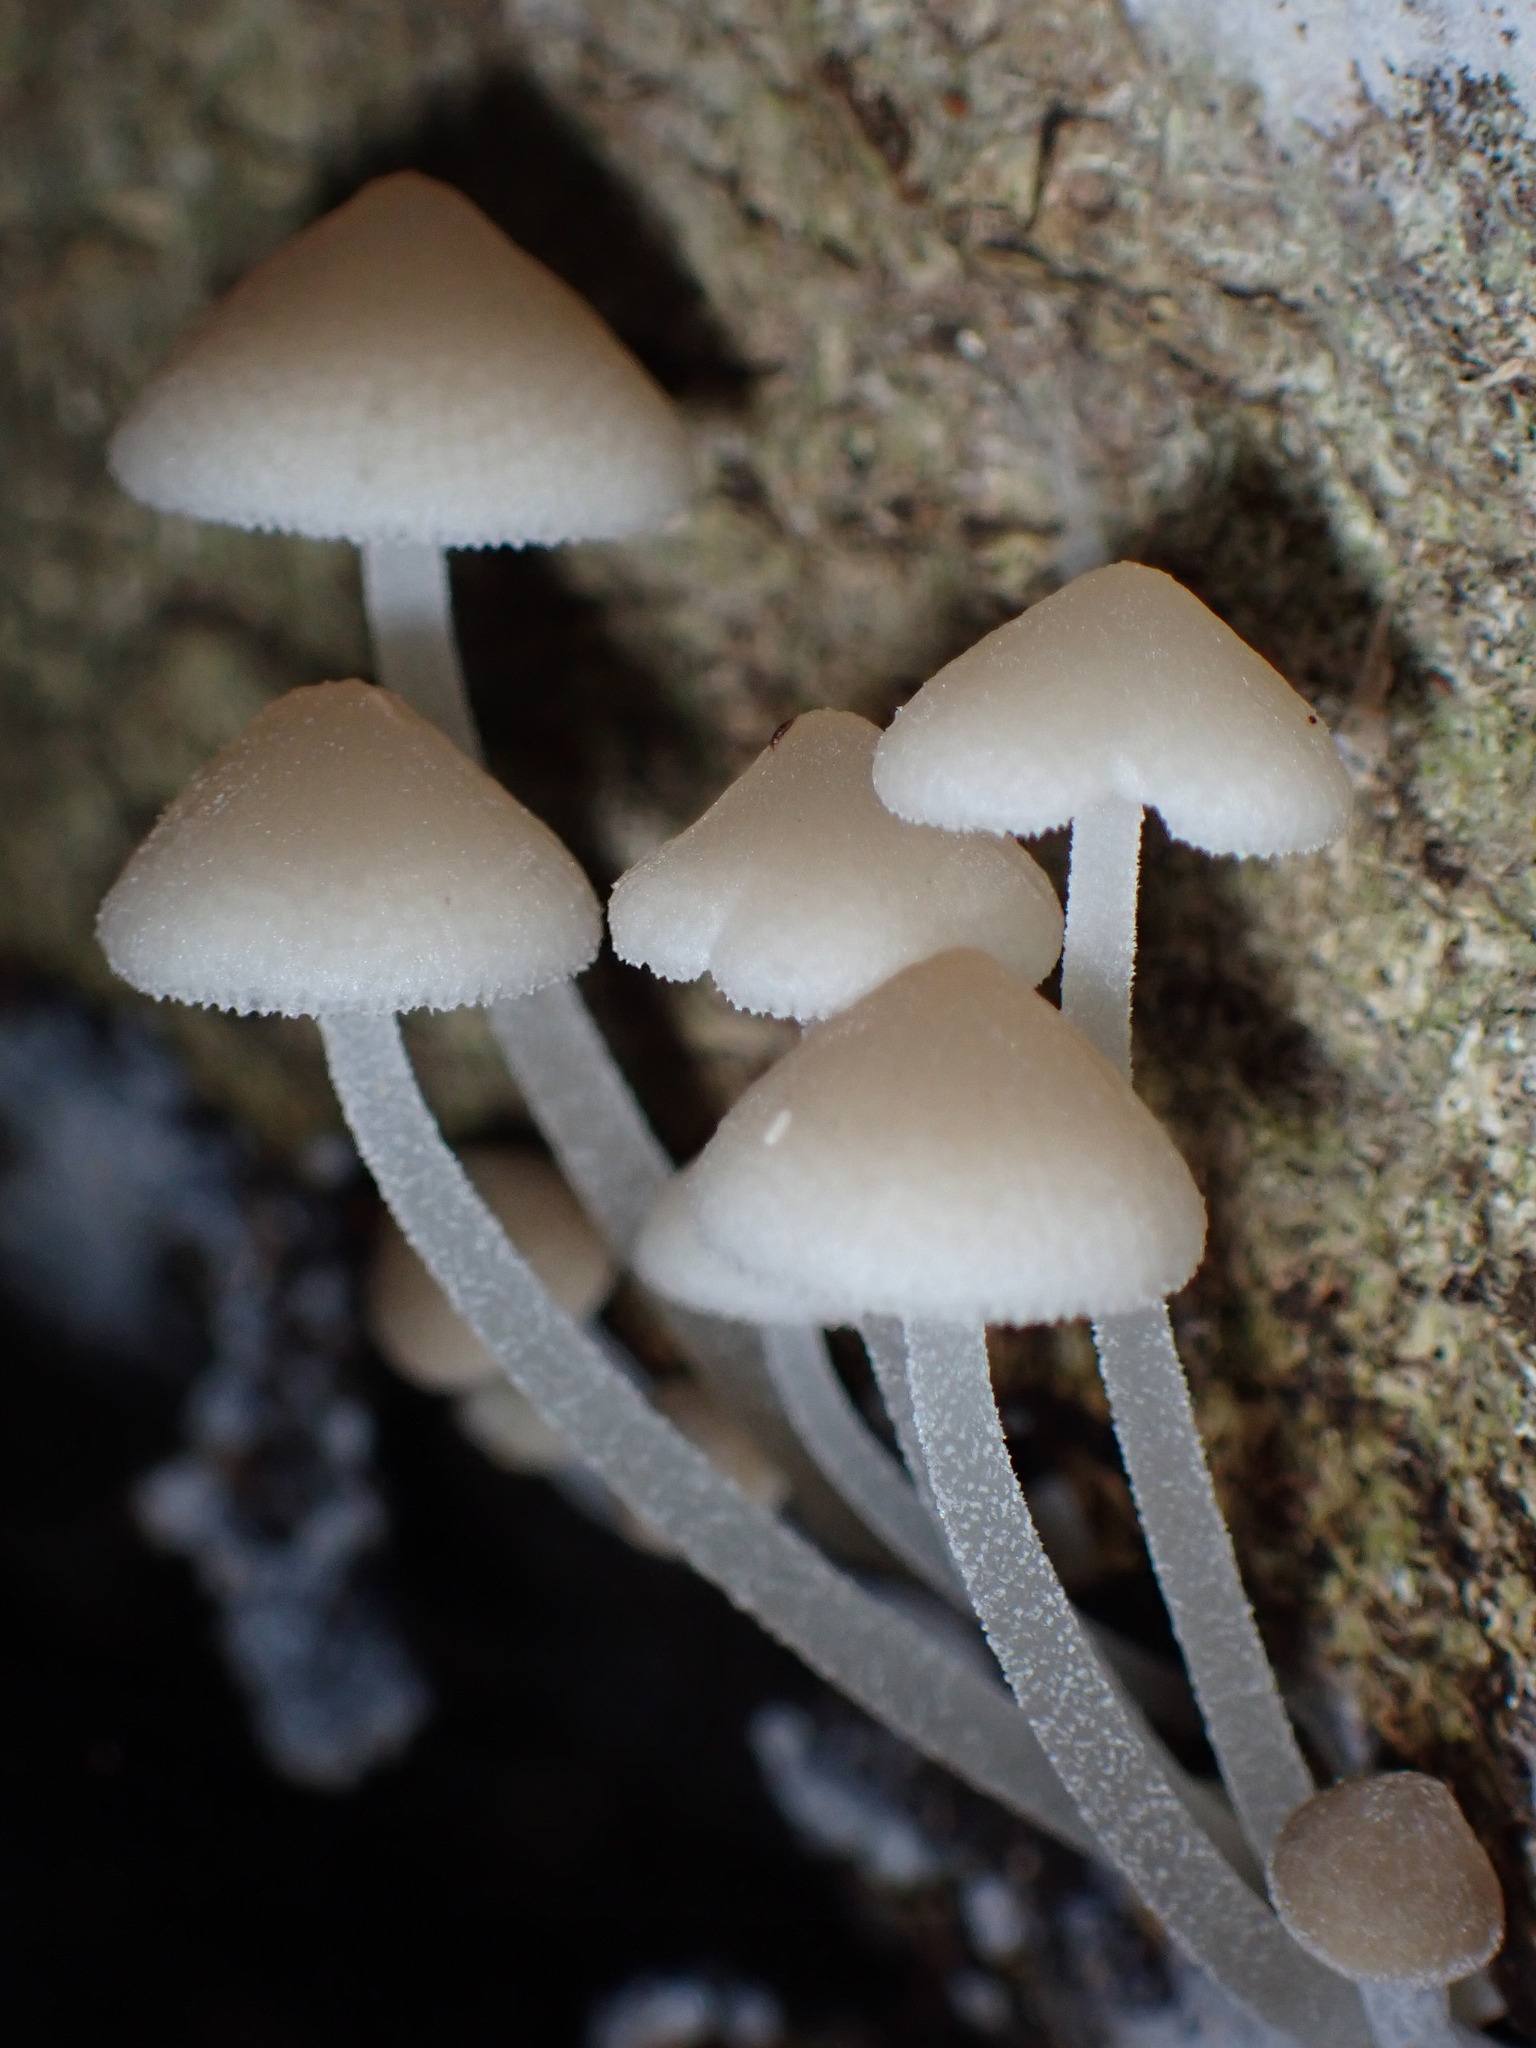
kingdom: Fungi
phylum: Basidiomycota
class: Agaricomycetes
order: Agaricales
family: Mycenaceae
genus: Filoboletus
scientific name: Filoboletus manipularis
